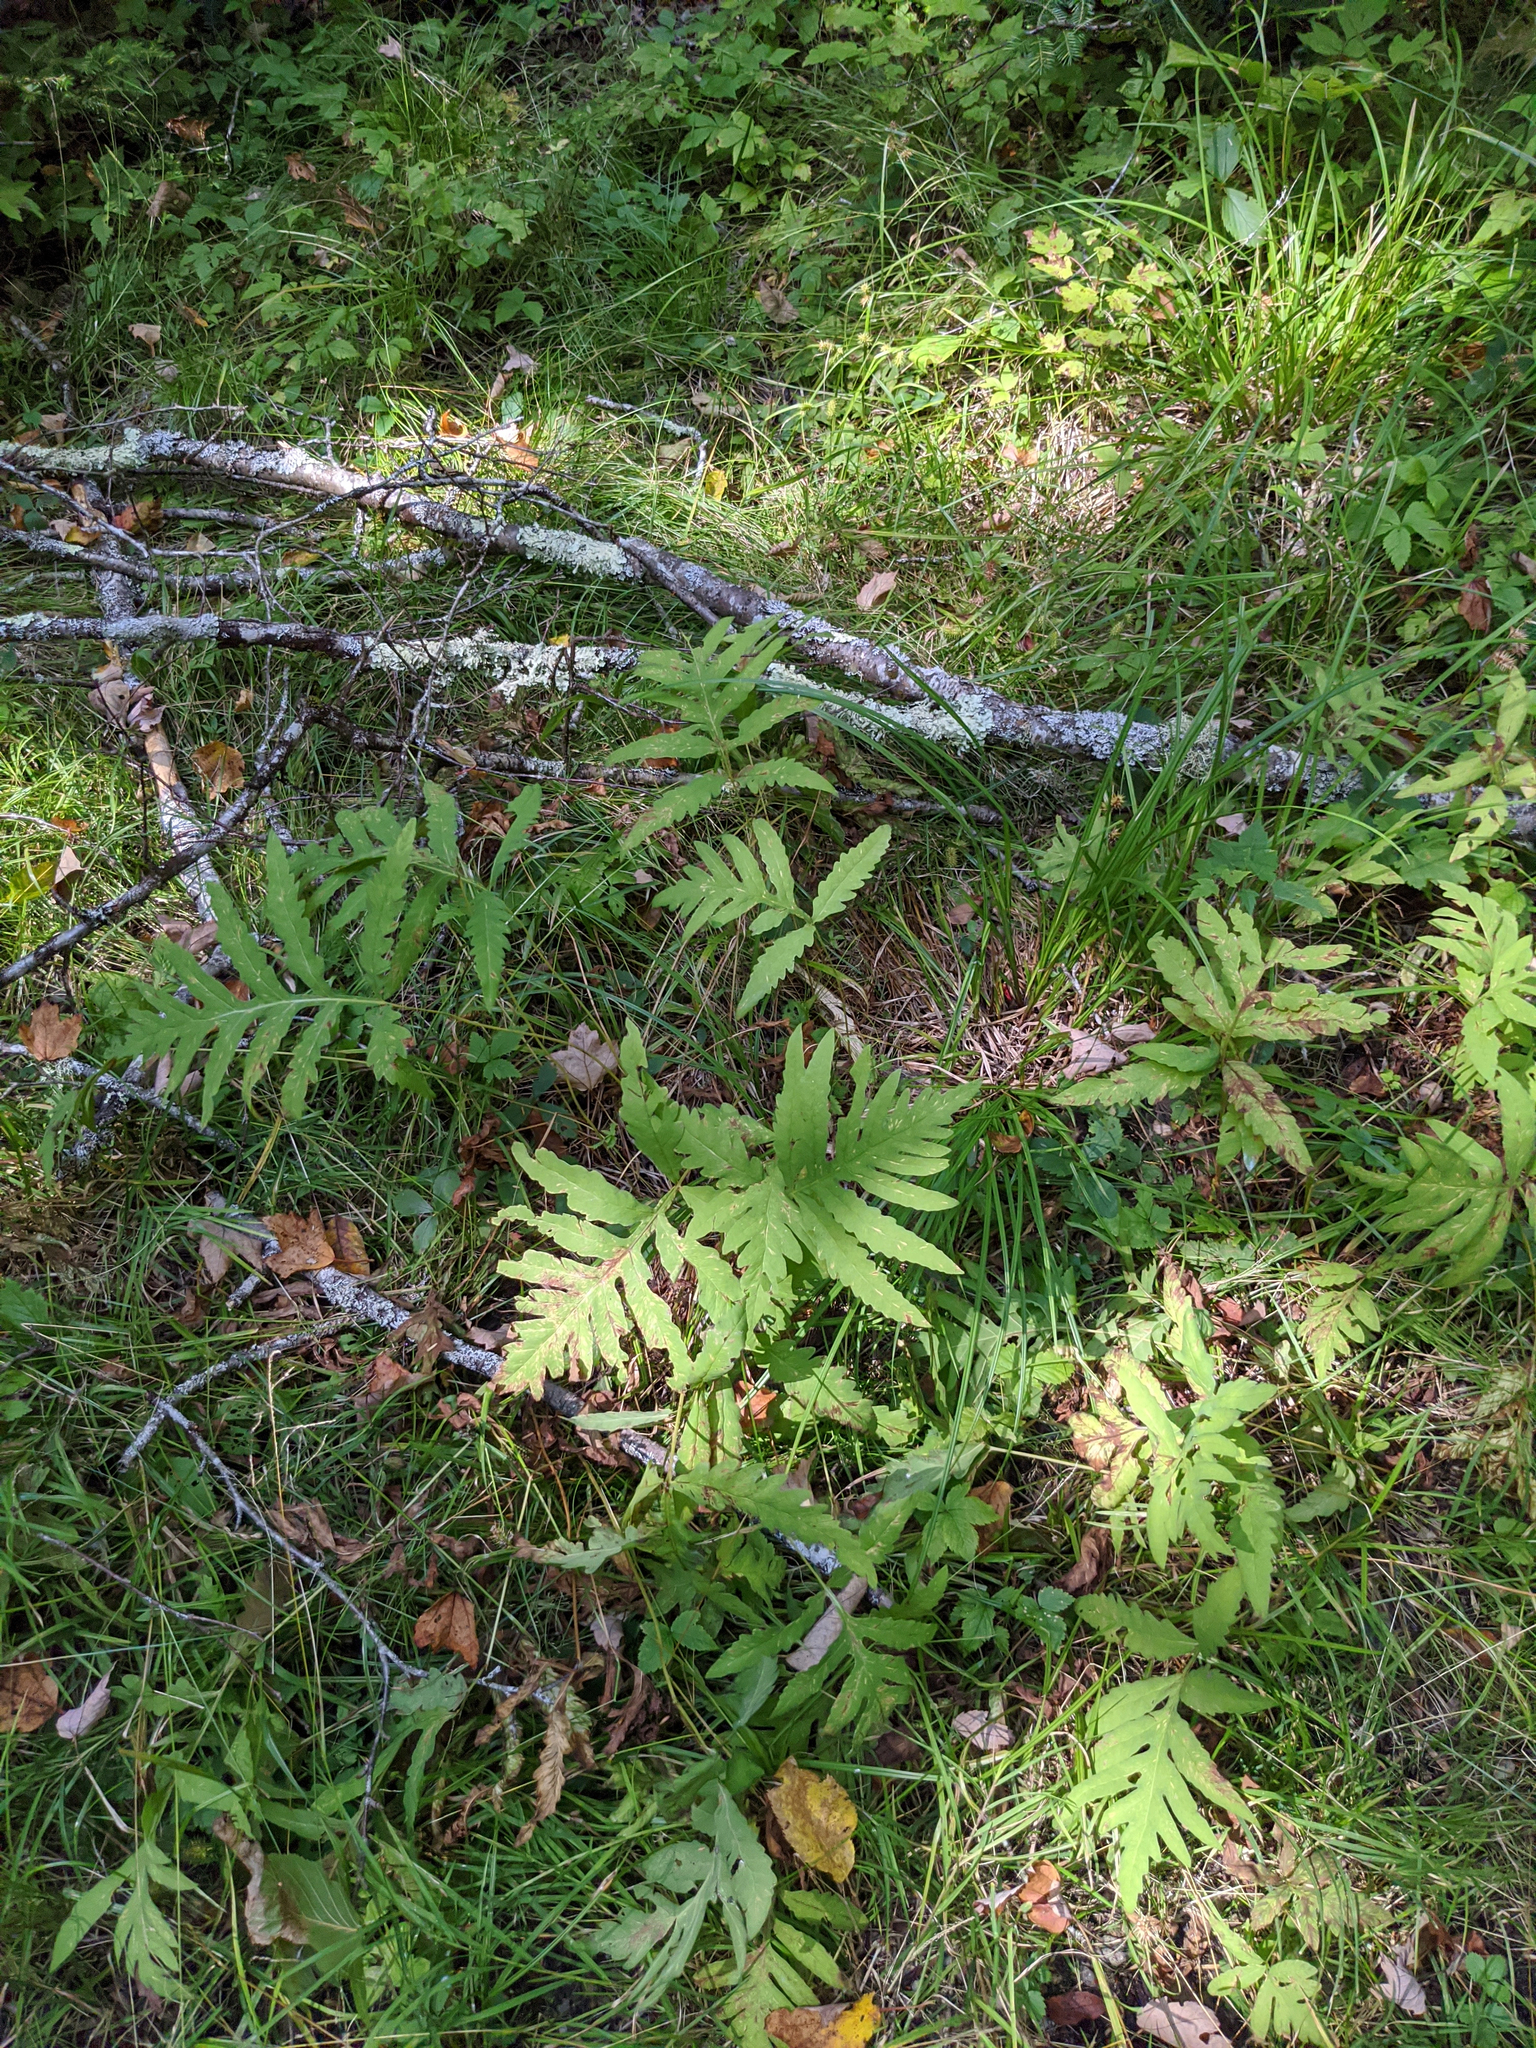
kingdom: Plantae
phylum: Tracheophyta
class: Polypodiopsida
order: Polypodiales
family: Onocleaceae
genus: Onoclea
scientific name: Onoclea sensibilis
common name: Sensitive fern
